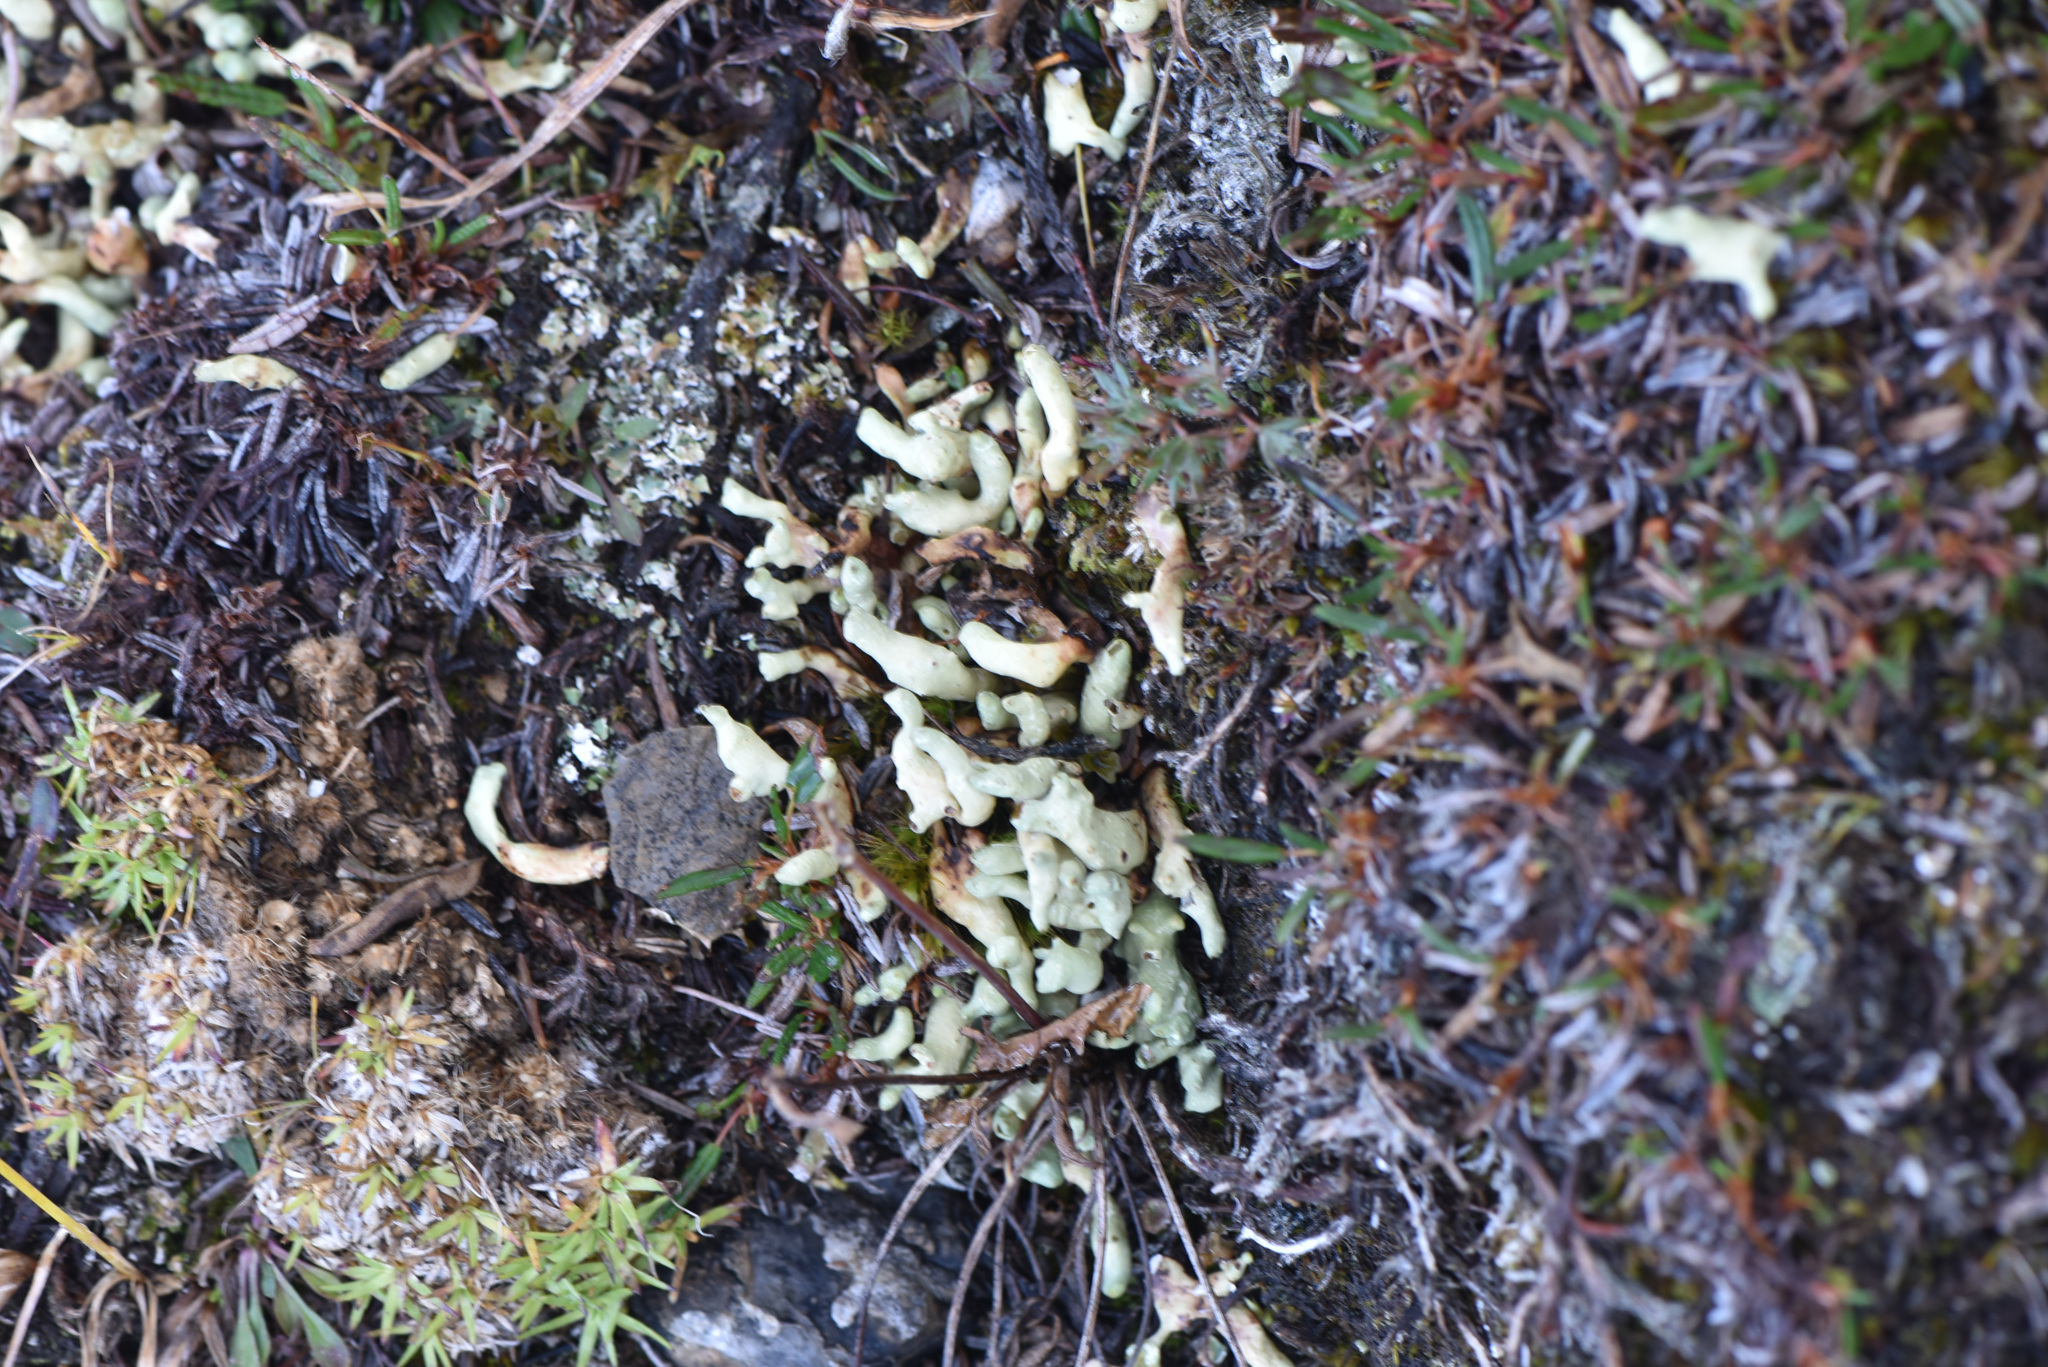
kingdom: Fungi
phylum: Ascomycota
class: Lecanoromycetes
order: Lecanorales
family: Parmeliaceae
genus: Dactylina
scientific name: Dactylina arctica
